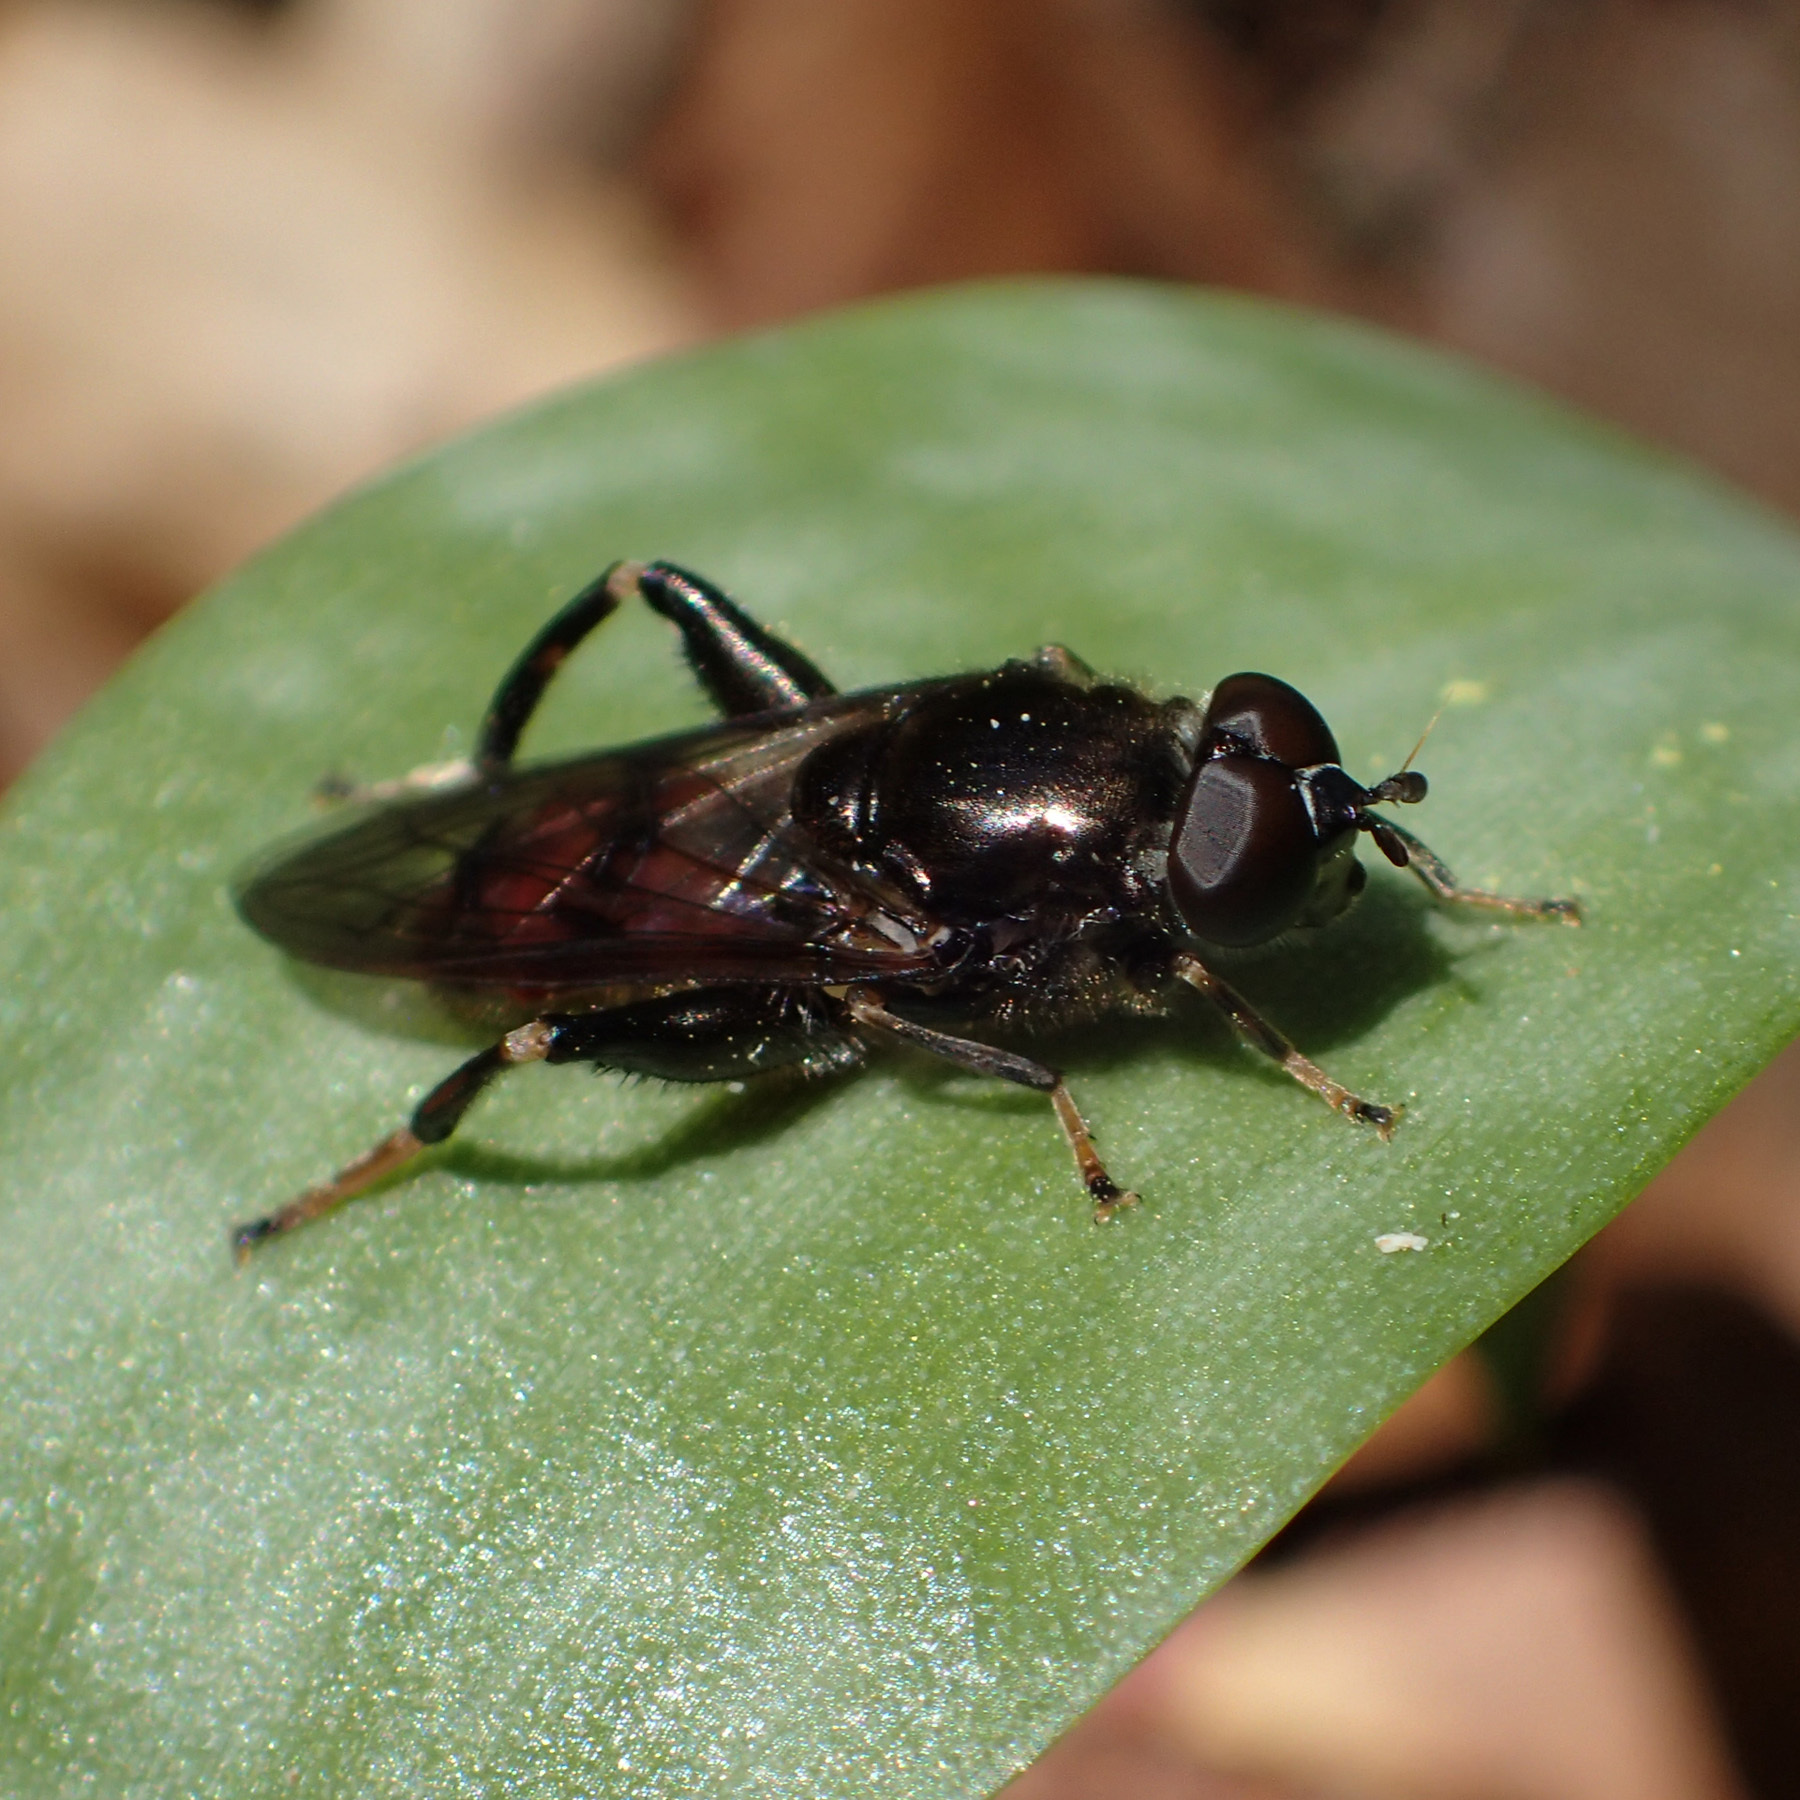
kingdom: Animalia
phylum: Arthropoda
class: Insecta
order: Diptera
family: Syrphidae
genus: Chalcosyrphus
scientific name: Chalcosyrphus libo
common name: Long-haired forest fly
